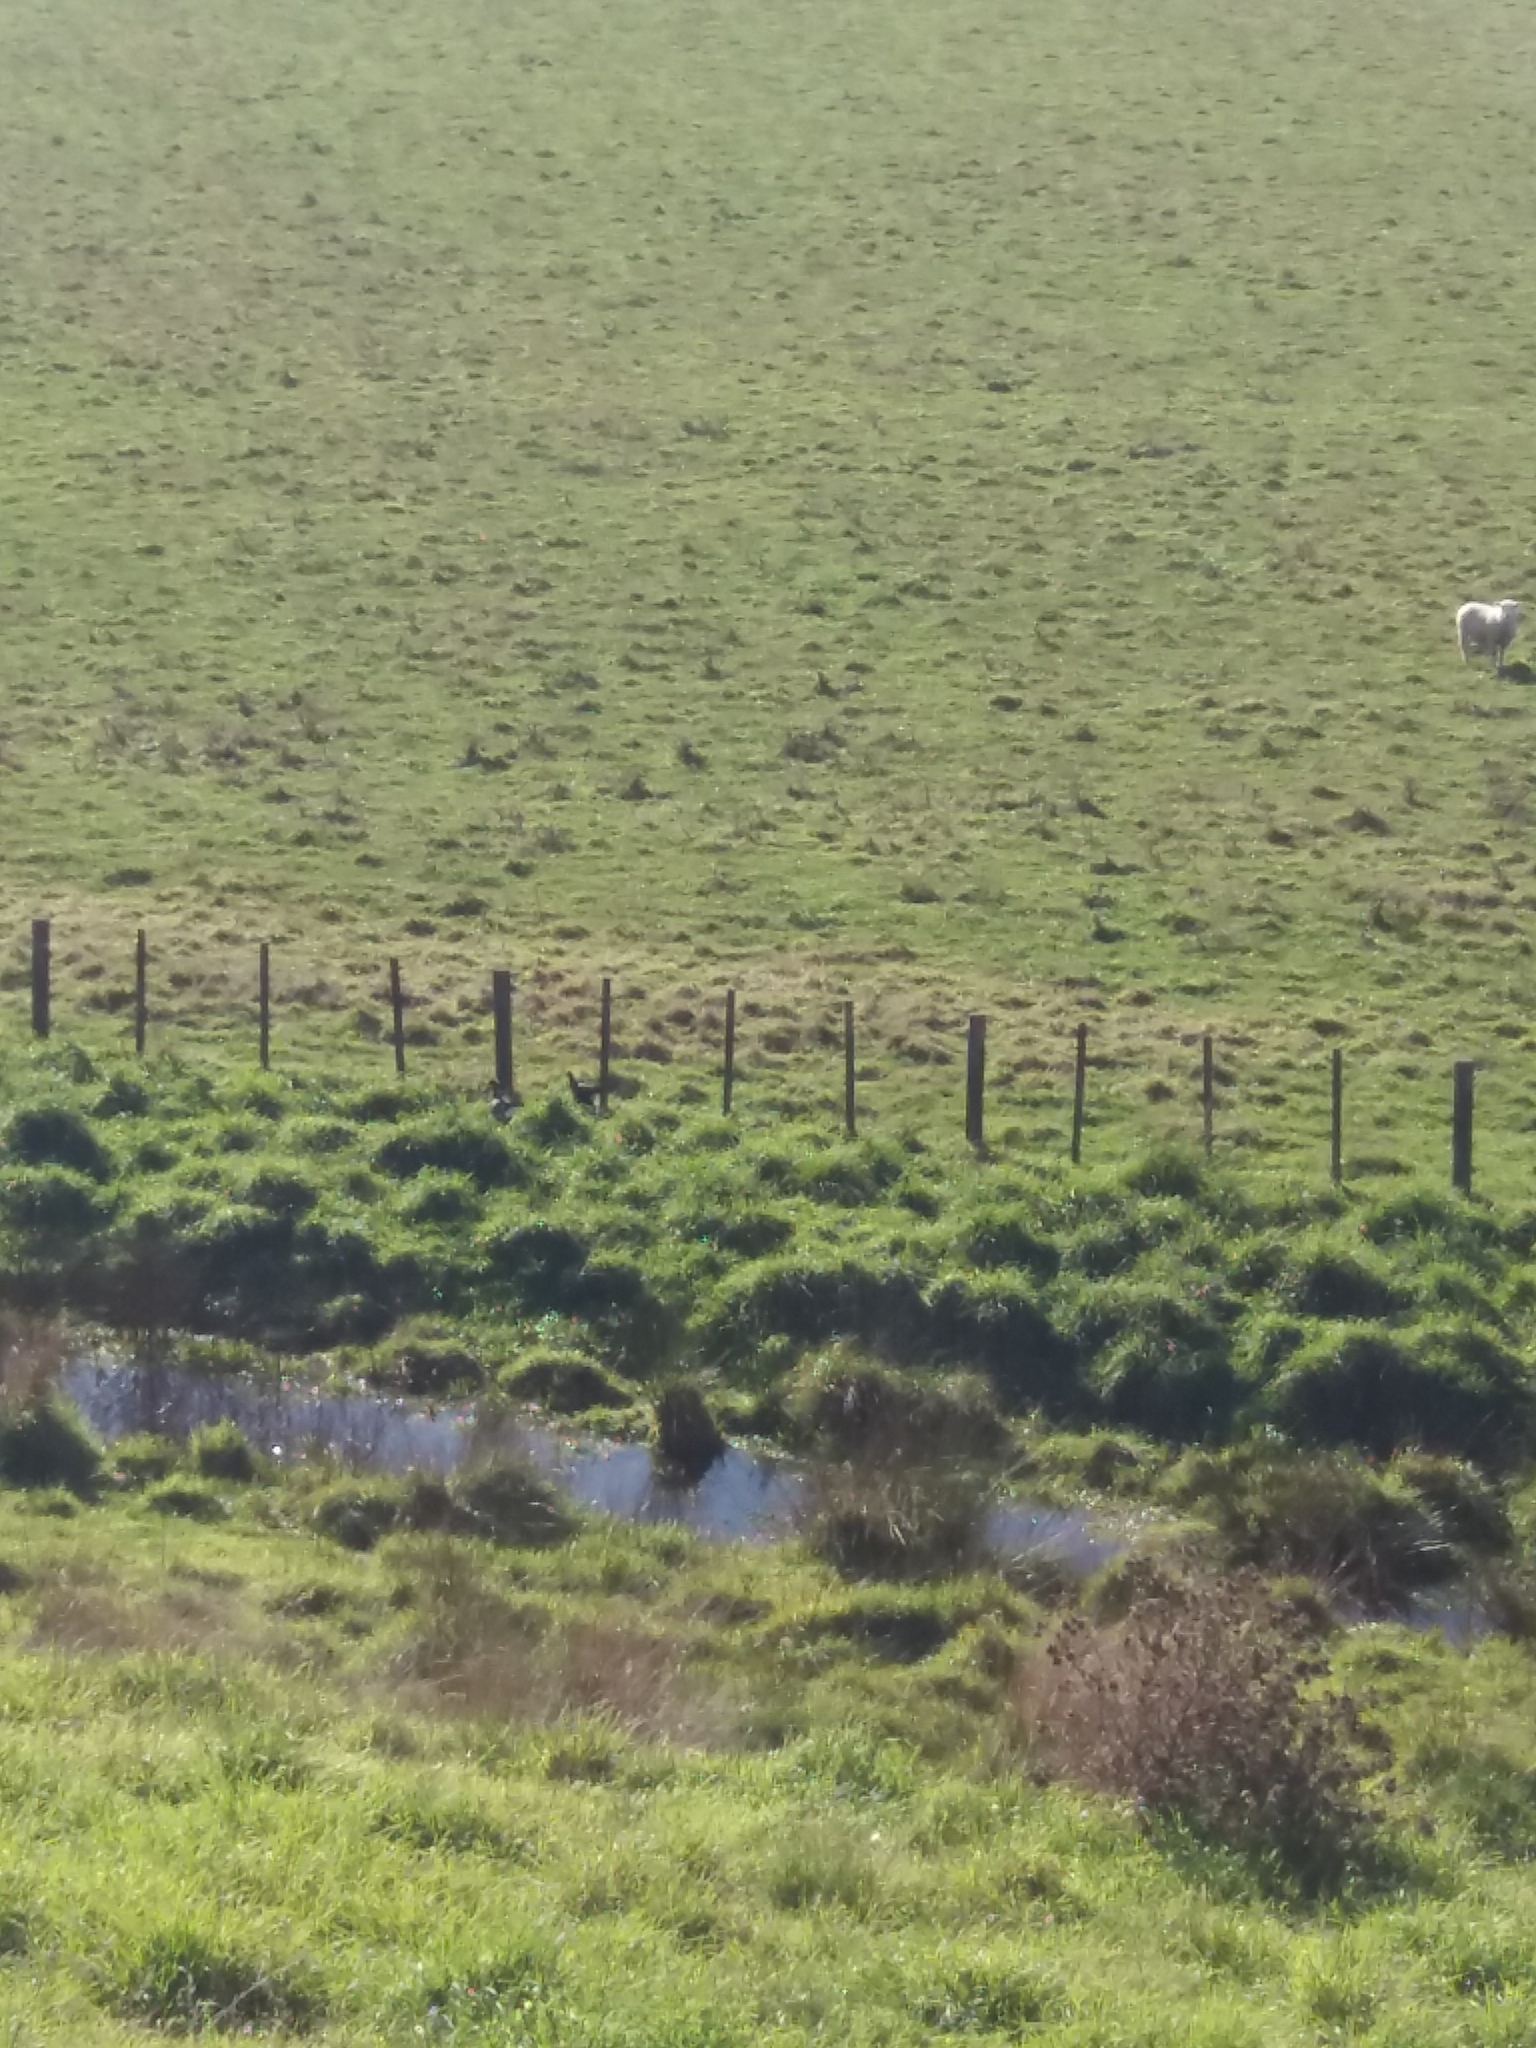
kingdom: Animalia
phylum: Chordata
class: Aves
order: Gruiformes
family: Rallidae
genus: Porphyrio
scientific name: Porphyrio melanotus
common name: Australasian swamphen
